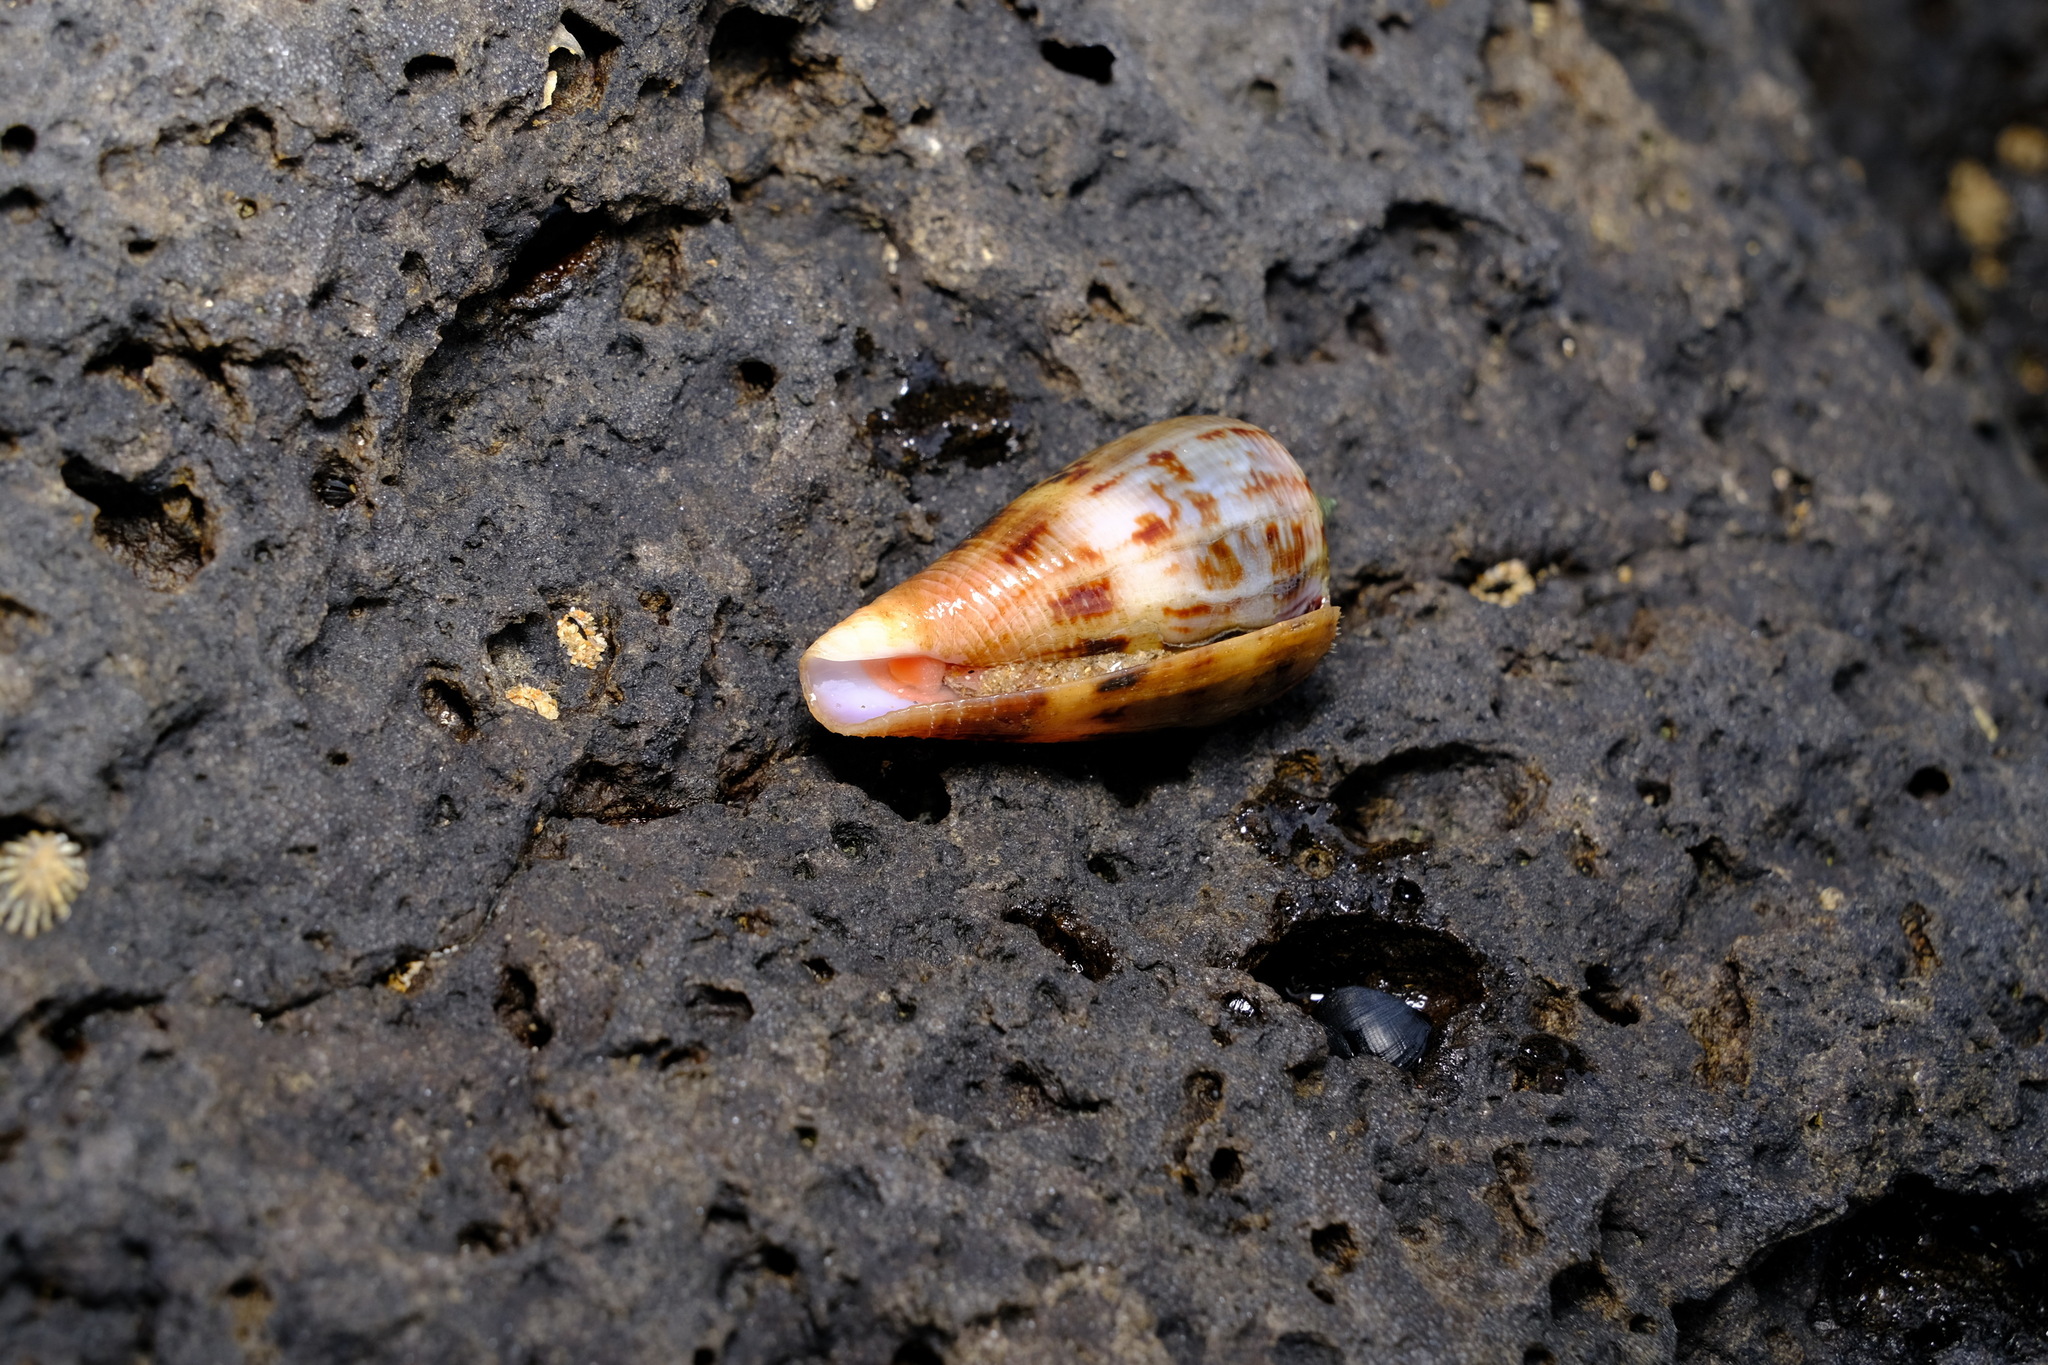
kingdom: Animalia
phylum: Mollusca
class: Gastropoda
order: Neogastropoda
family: Conidae
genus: Conus
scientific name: Conus anemone
